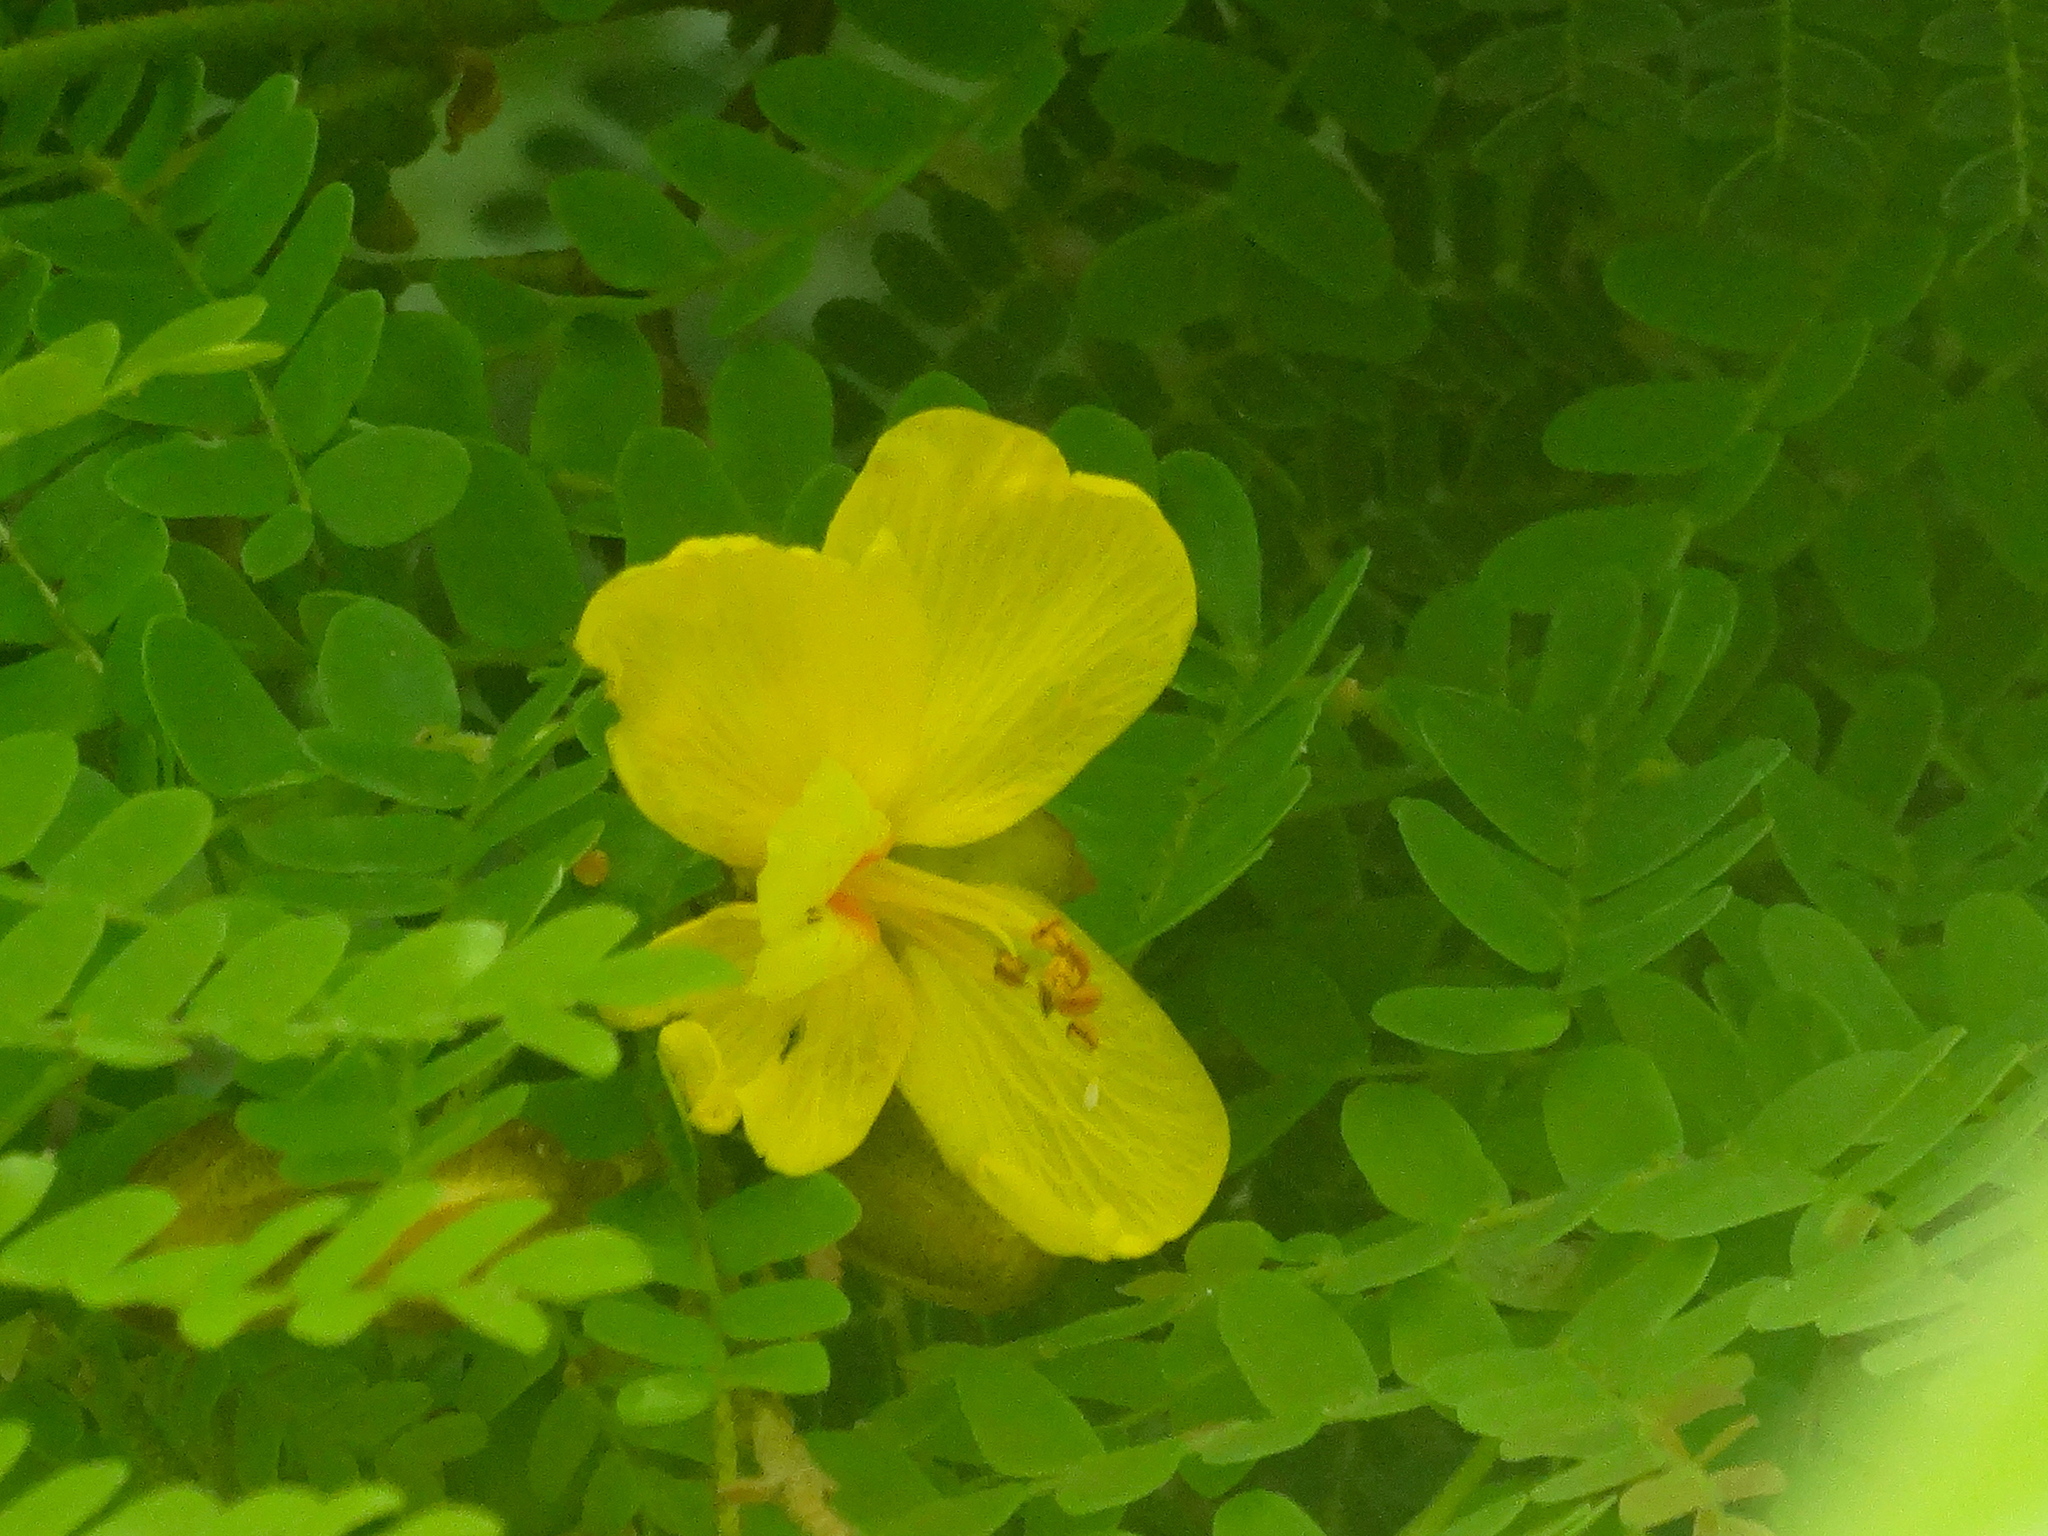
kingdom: Plantae
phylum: Tracheophyta
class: Magnoliopsida
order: Fabales
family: Fabaceae
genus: Cenostigma
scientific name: Cenostigma eriostachys
